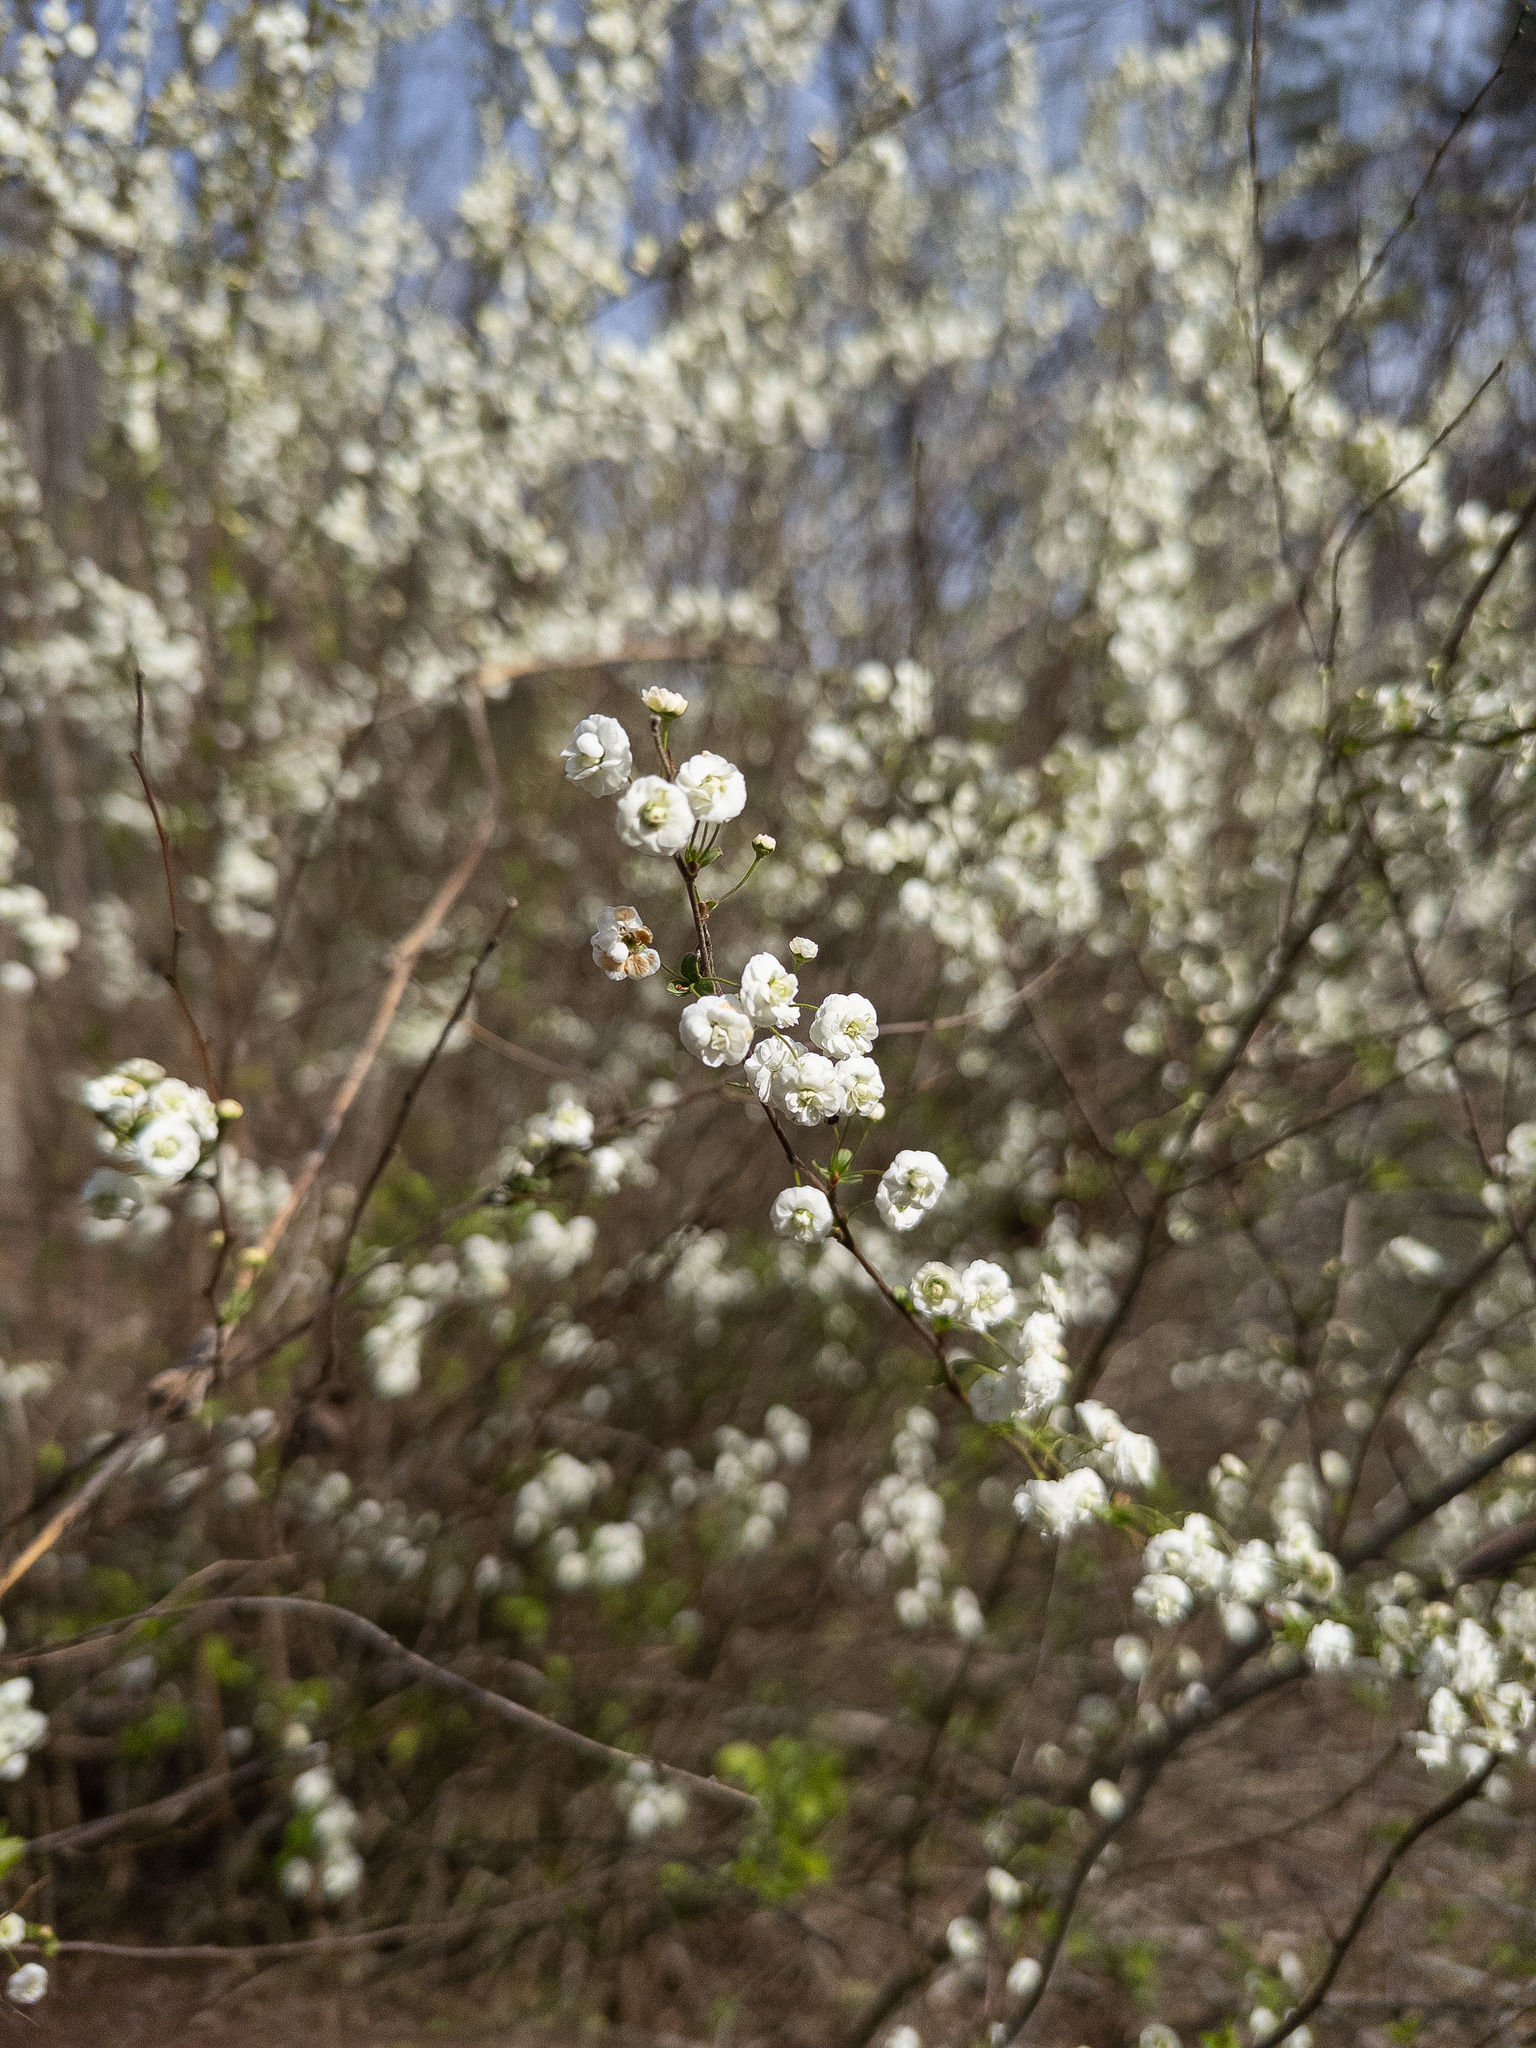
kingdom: Plantae
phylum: Tracheophyta
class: Magnoliopsida
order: Rosales
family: Rosaceae
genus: Spiraea
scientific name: Spiraea prunifolia
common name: Bridal-wreath spiraea
